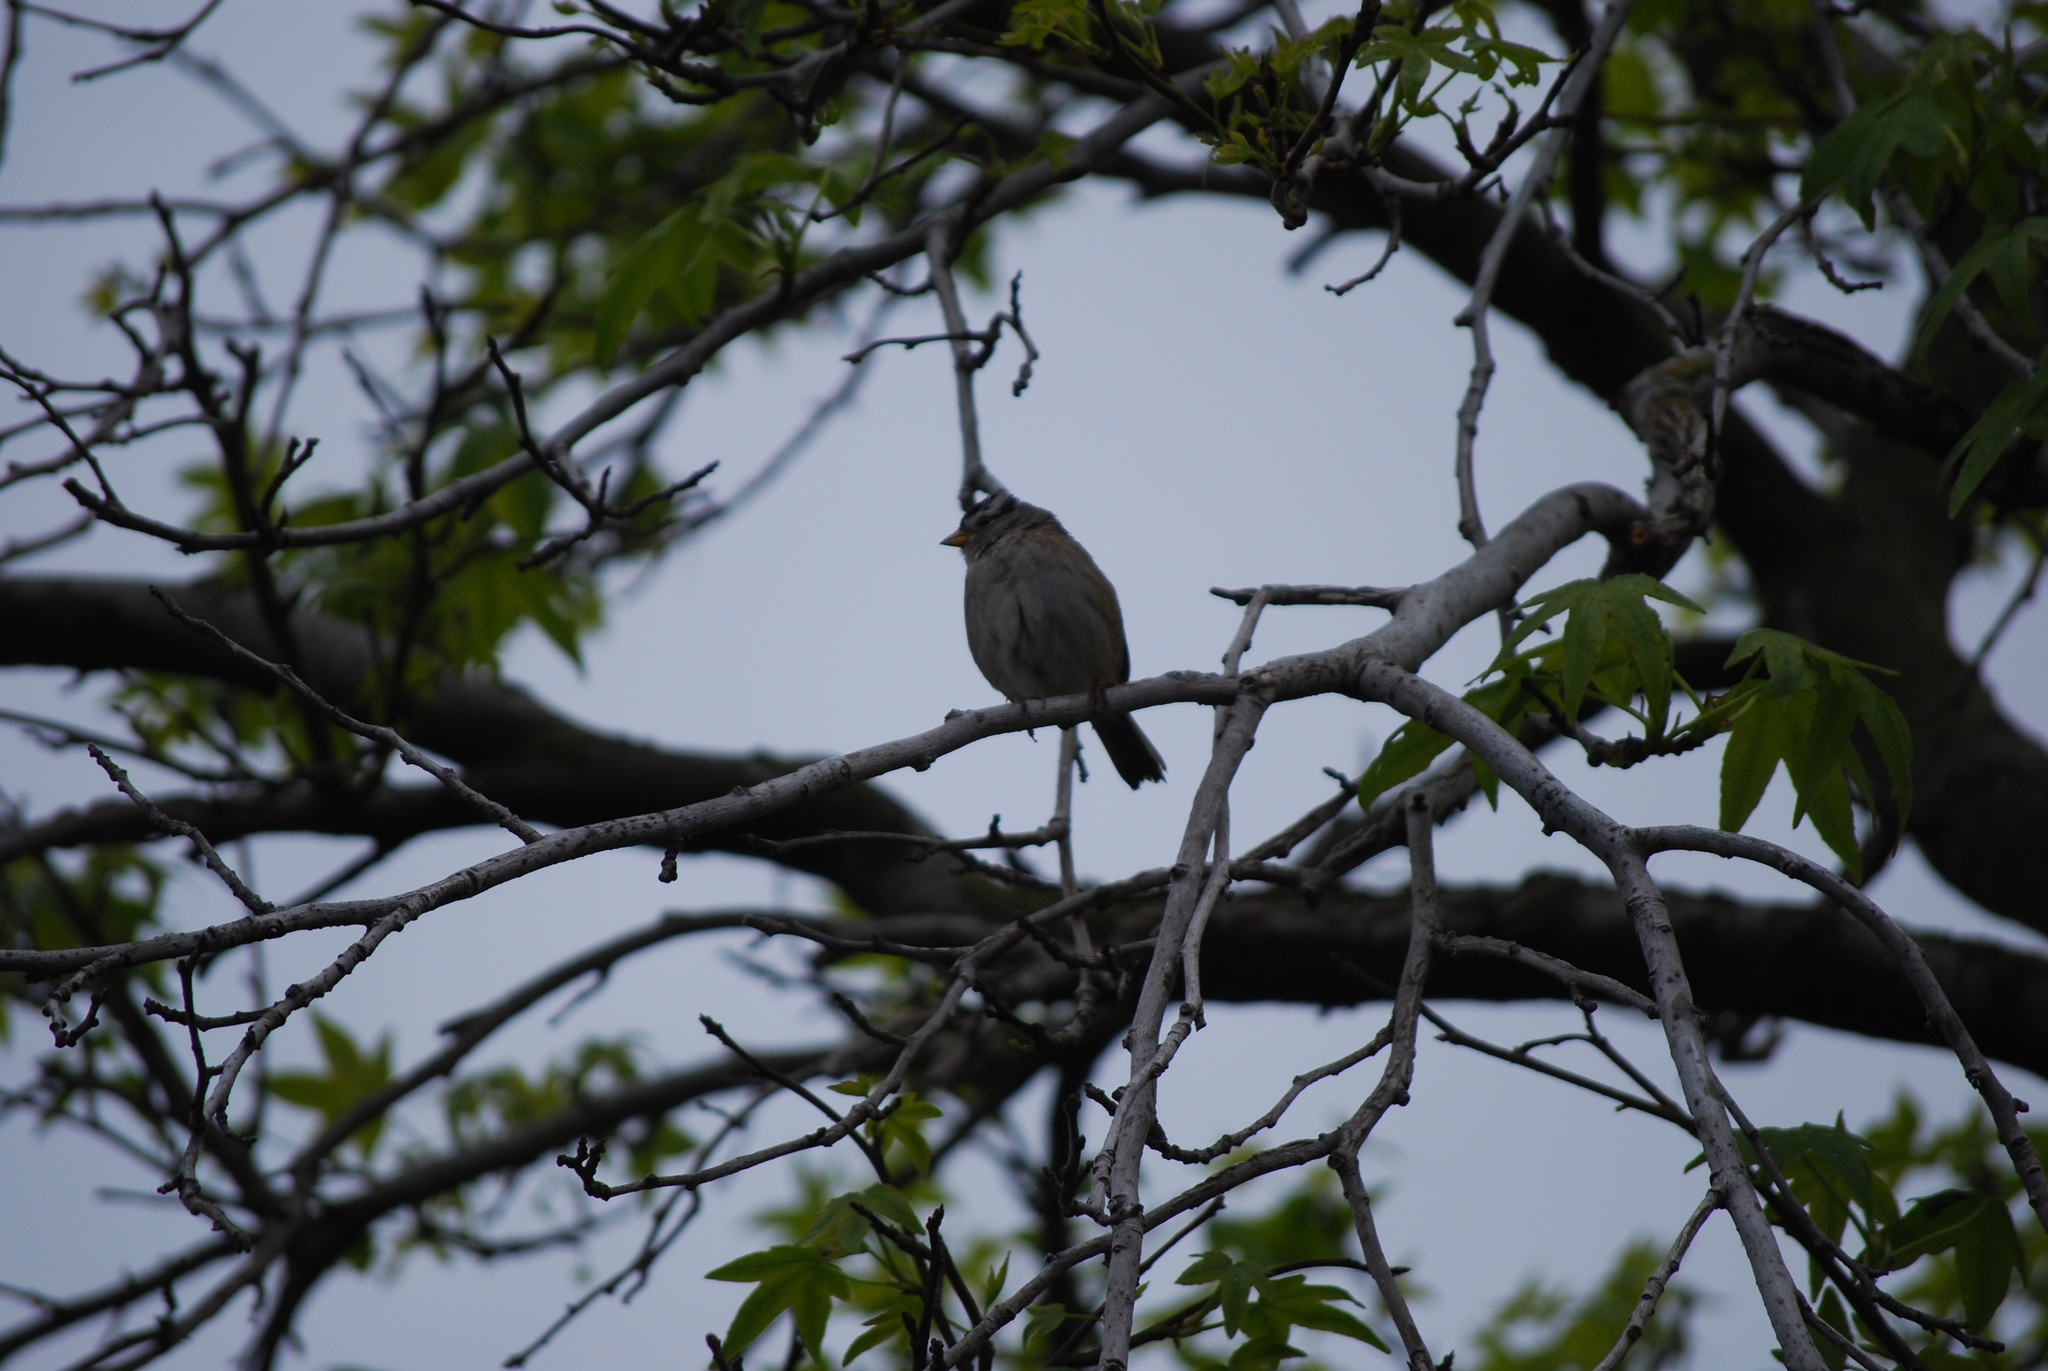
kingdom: Animalia
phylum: Chordata
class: Aves
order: Passeriformes
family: Passerellidae
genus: Zonotrichia
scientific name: Zonotrichia leucophrys
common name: White-crowned sparrow
